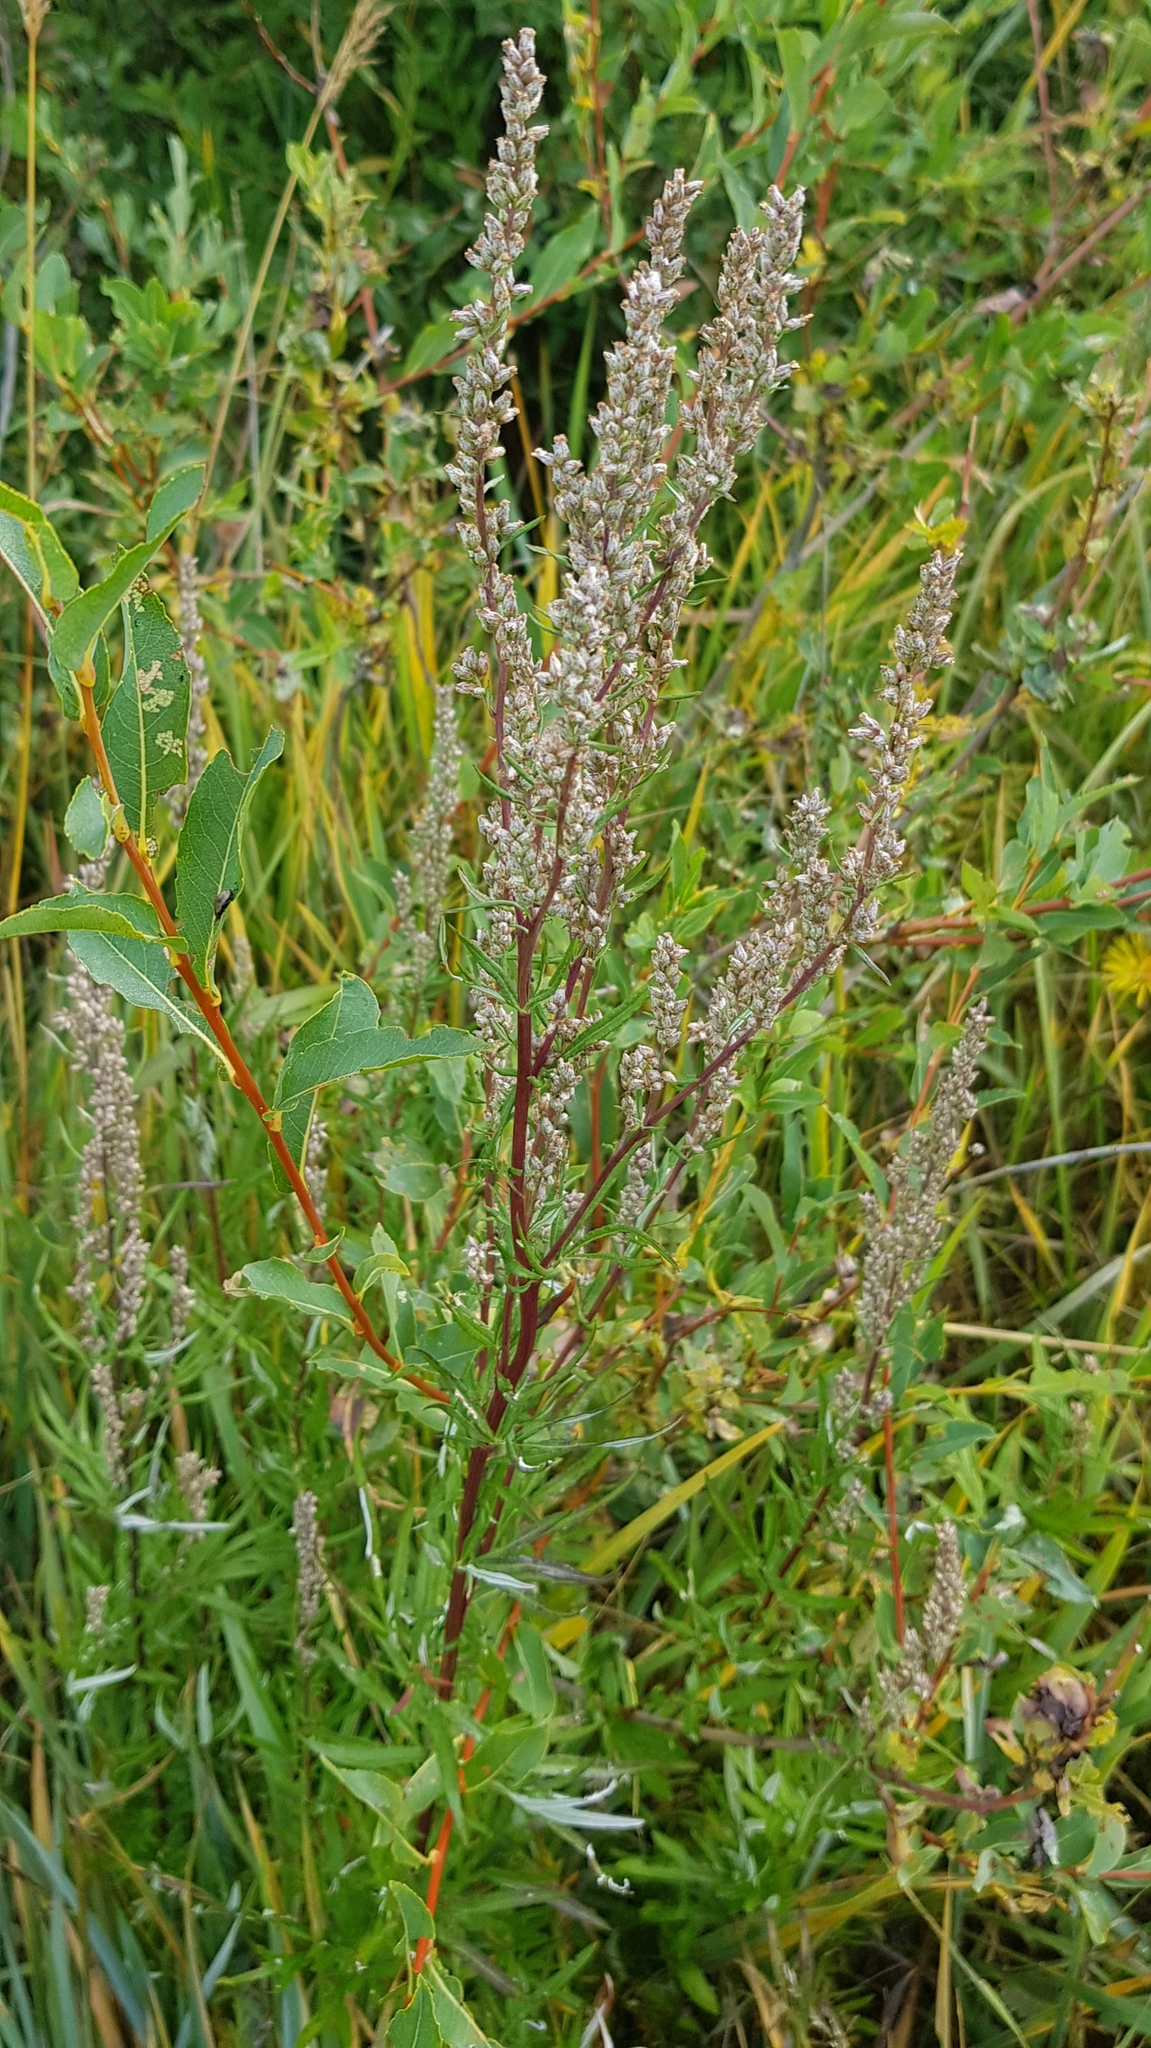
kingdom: Plantae
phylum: Tracheophyta
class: Magnoliopsida
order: Asterales
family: Asteraceae
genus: Artemisia
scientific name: Artemisia integrifolia
